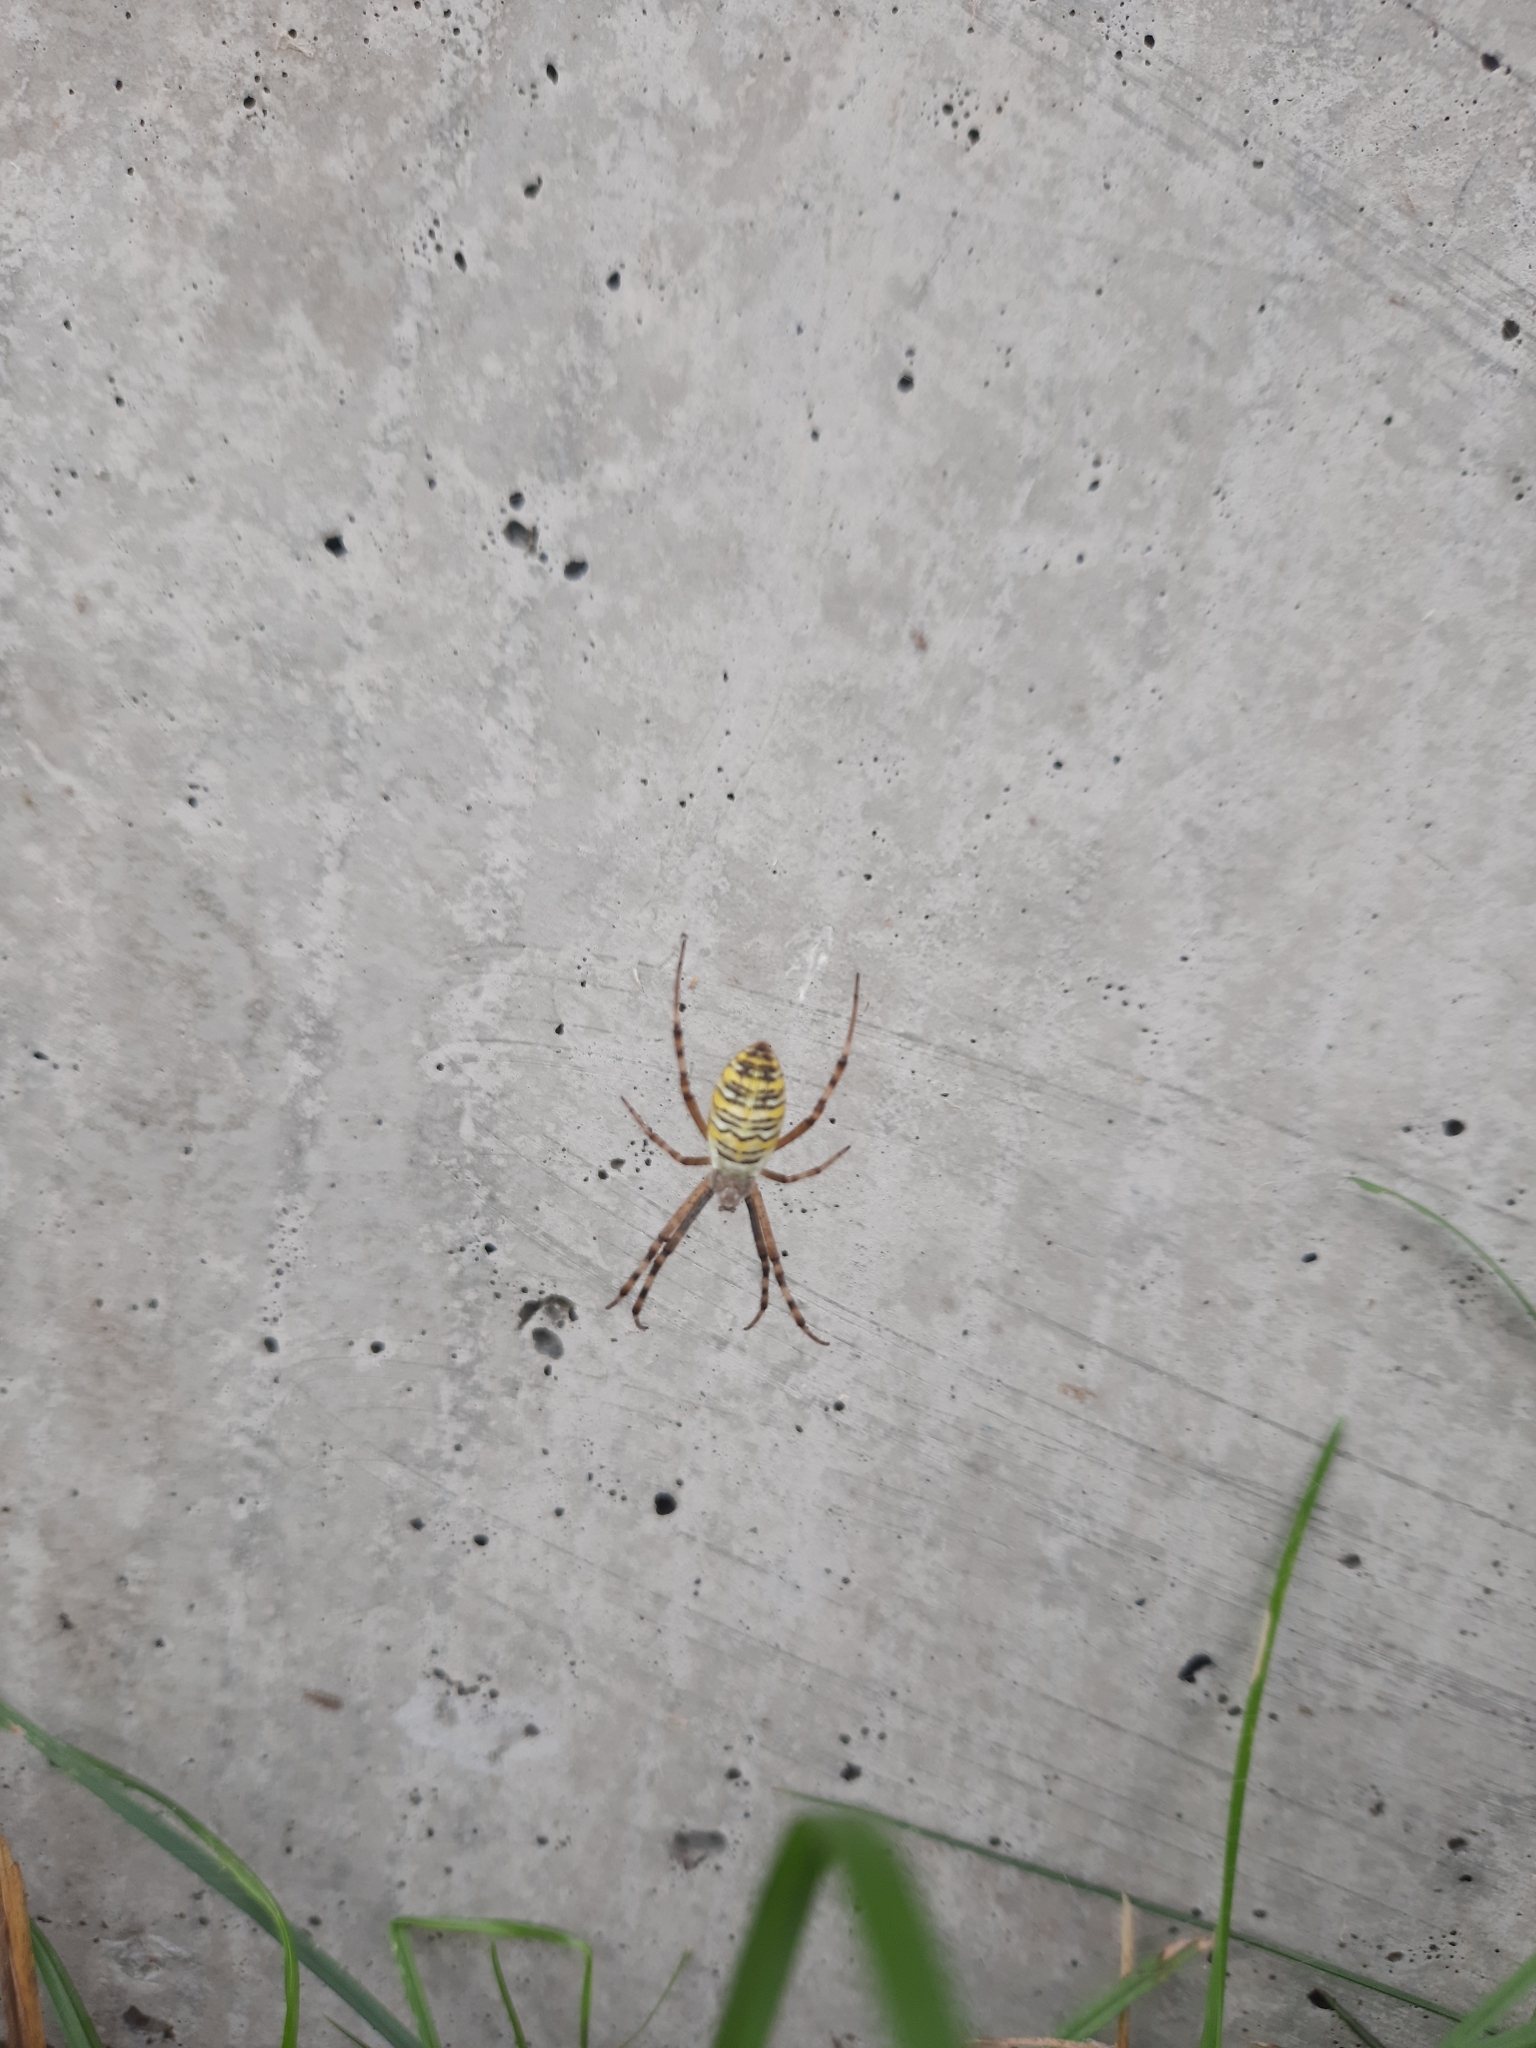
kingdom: Animalia
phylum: Arthropoda
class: Arachnida
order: Araneae
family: Araneidae
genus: Argiope
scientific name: Argiope bruennichi
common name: Wasp spider
